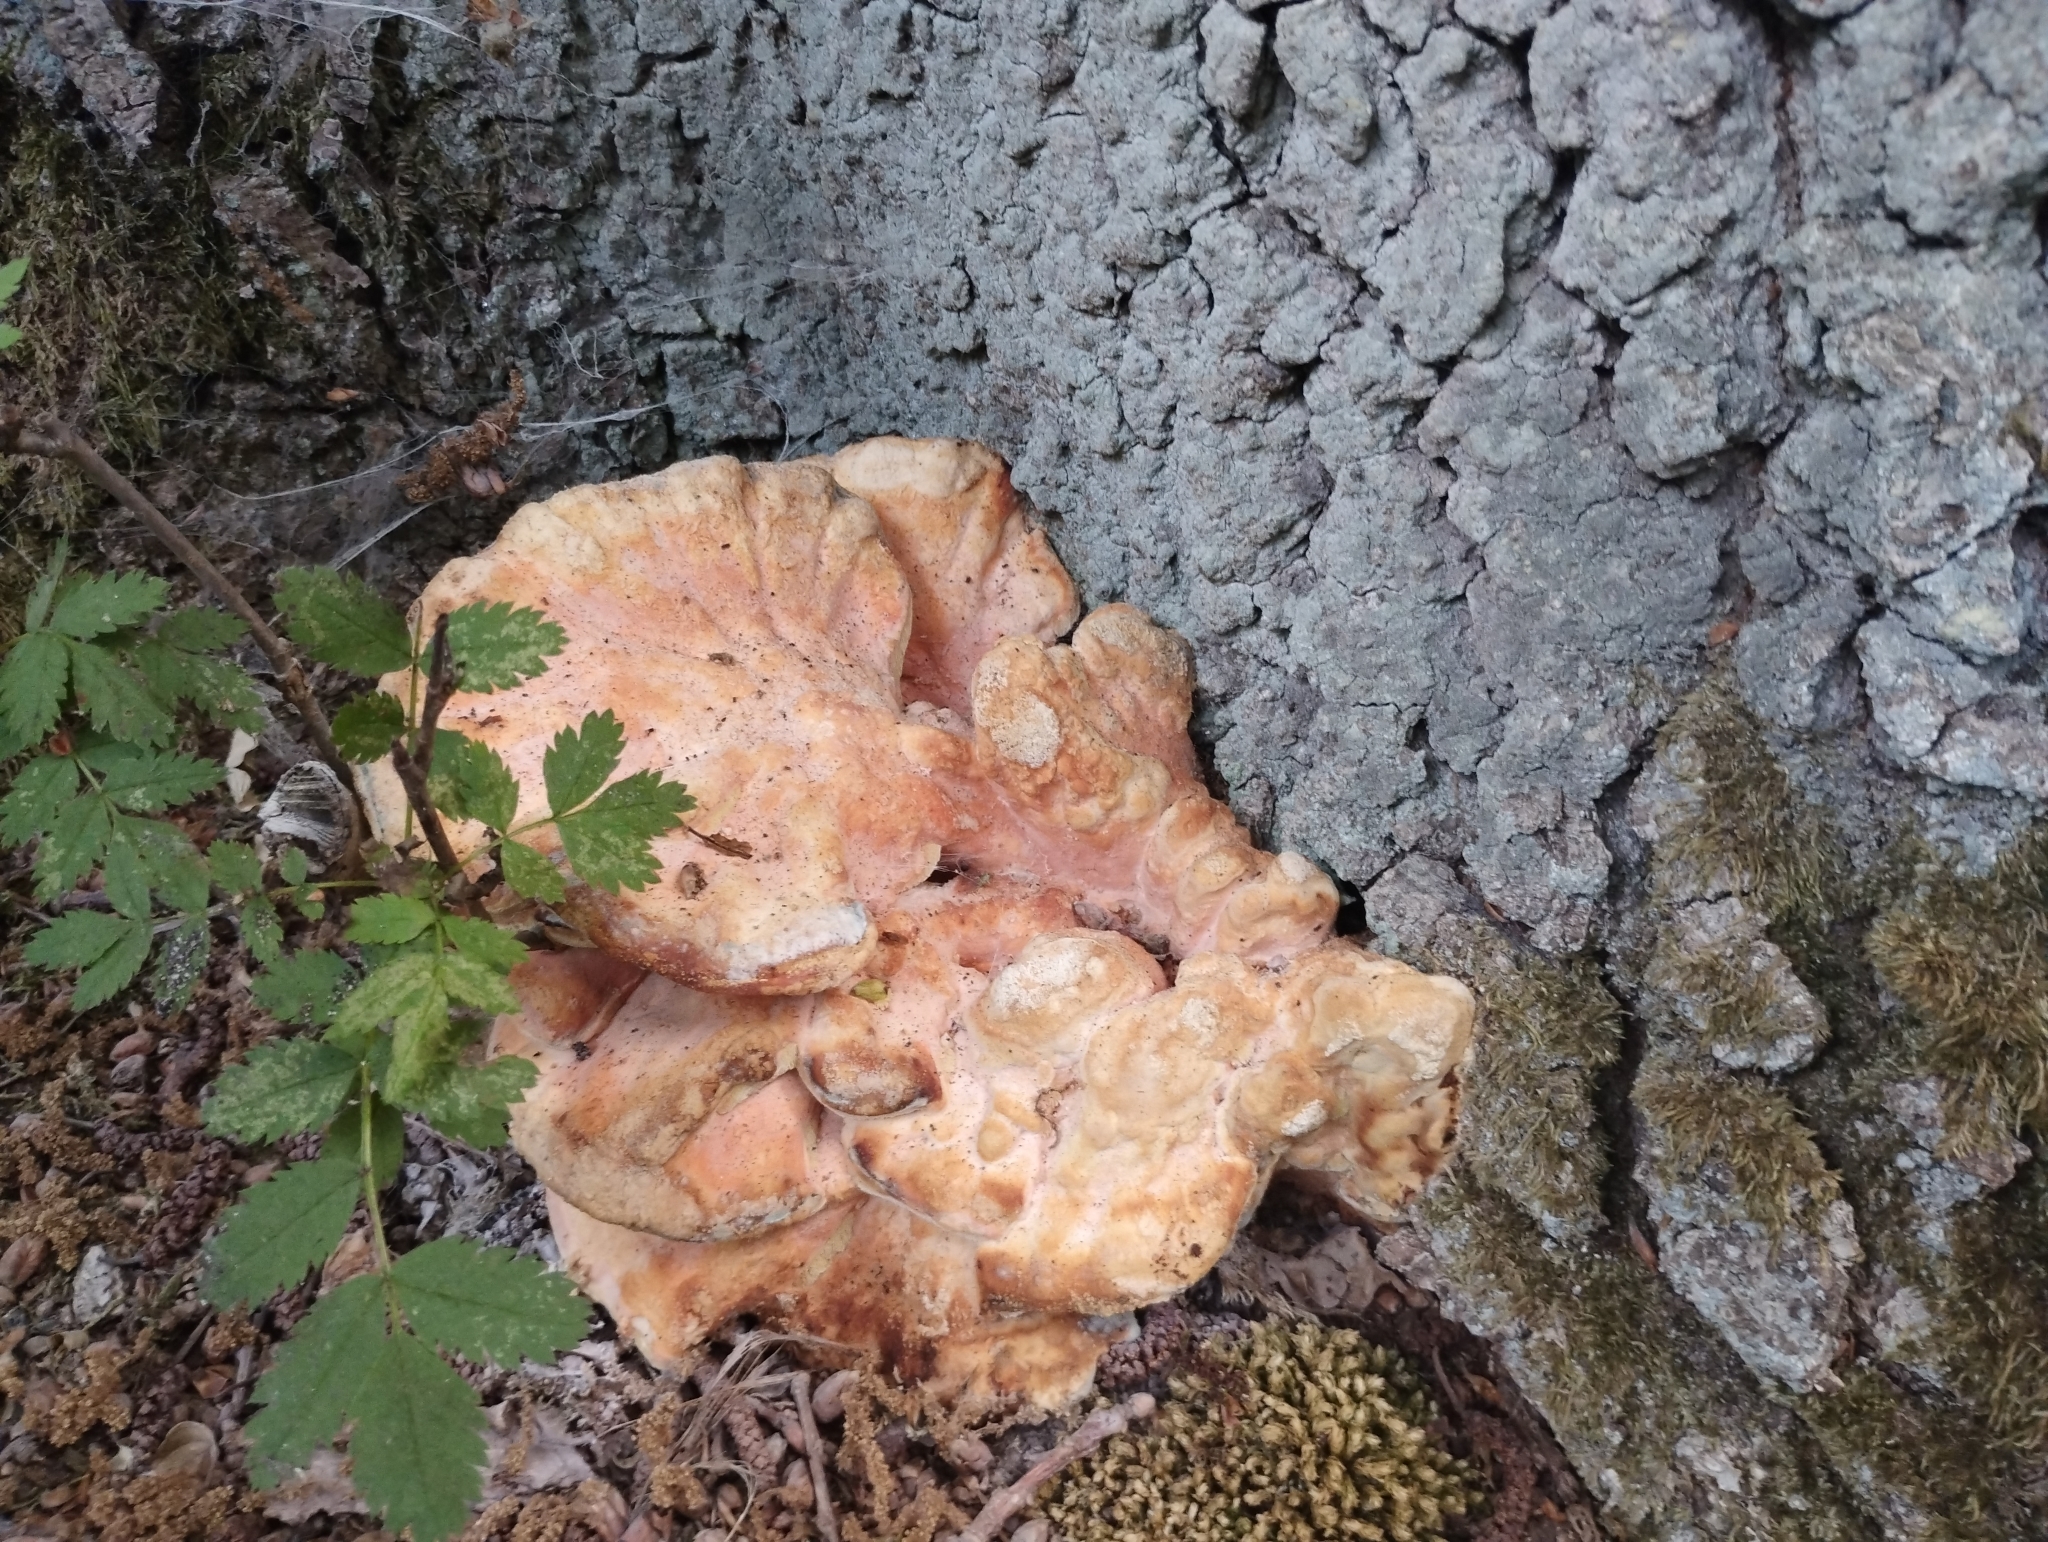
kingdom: Fungi
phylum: Basidiomycota
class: Agaricomycetes
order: Polyporales
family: Laetiporaceae
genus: Laetiporus
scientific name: Laetiporus sulphureus
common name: Chicken of the woods
